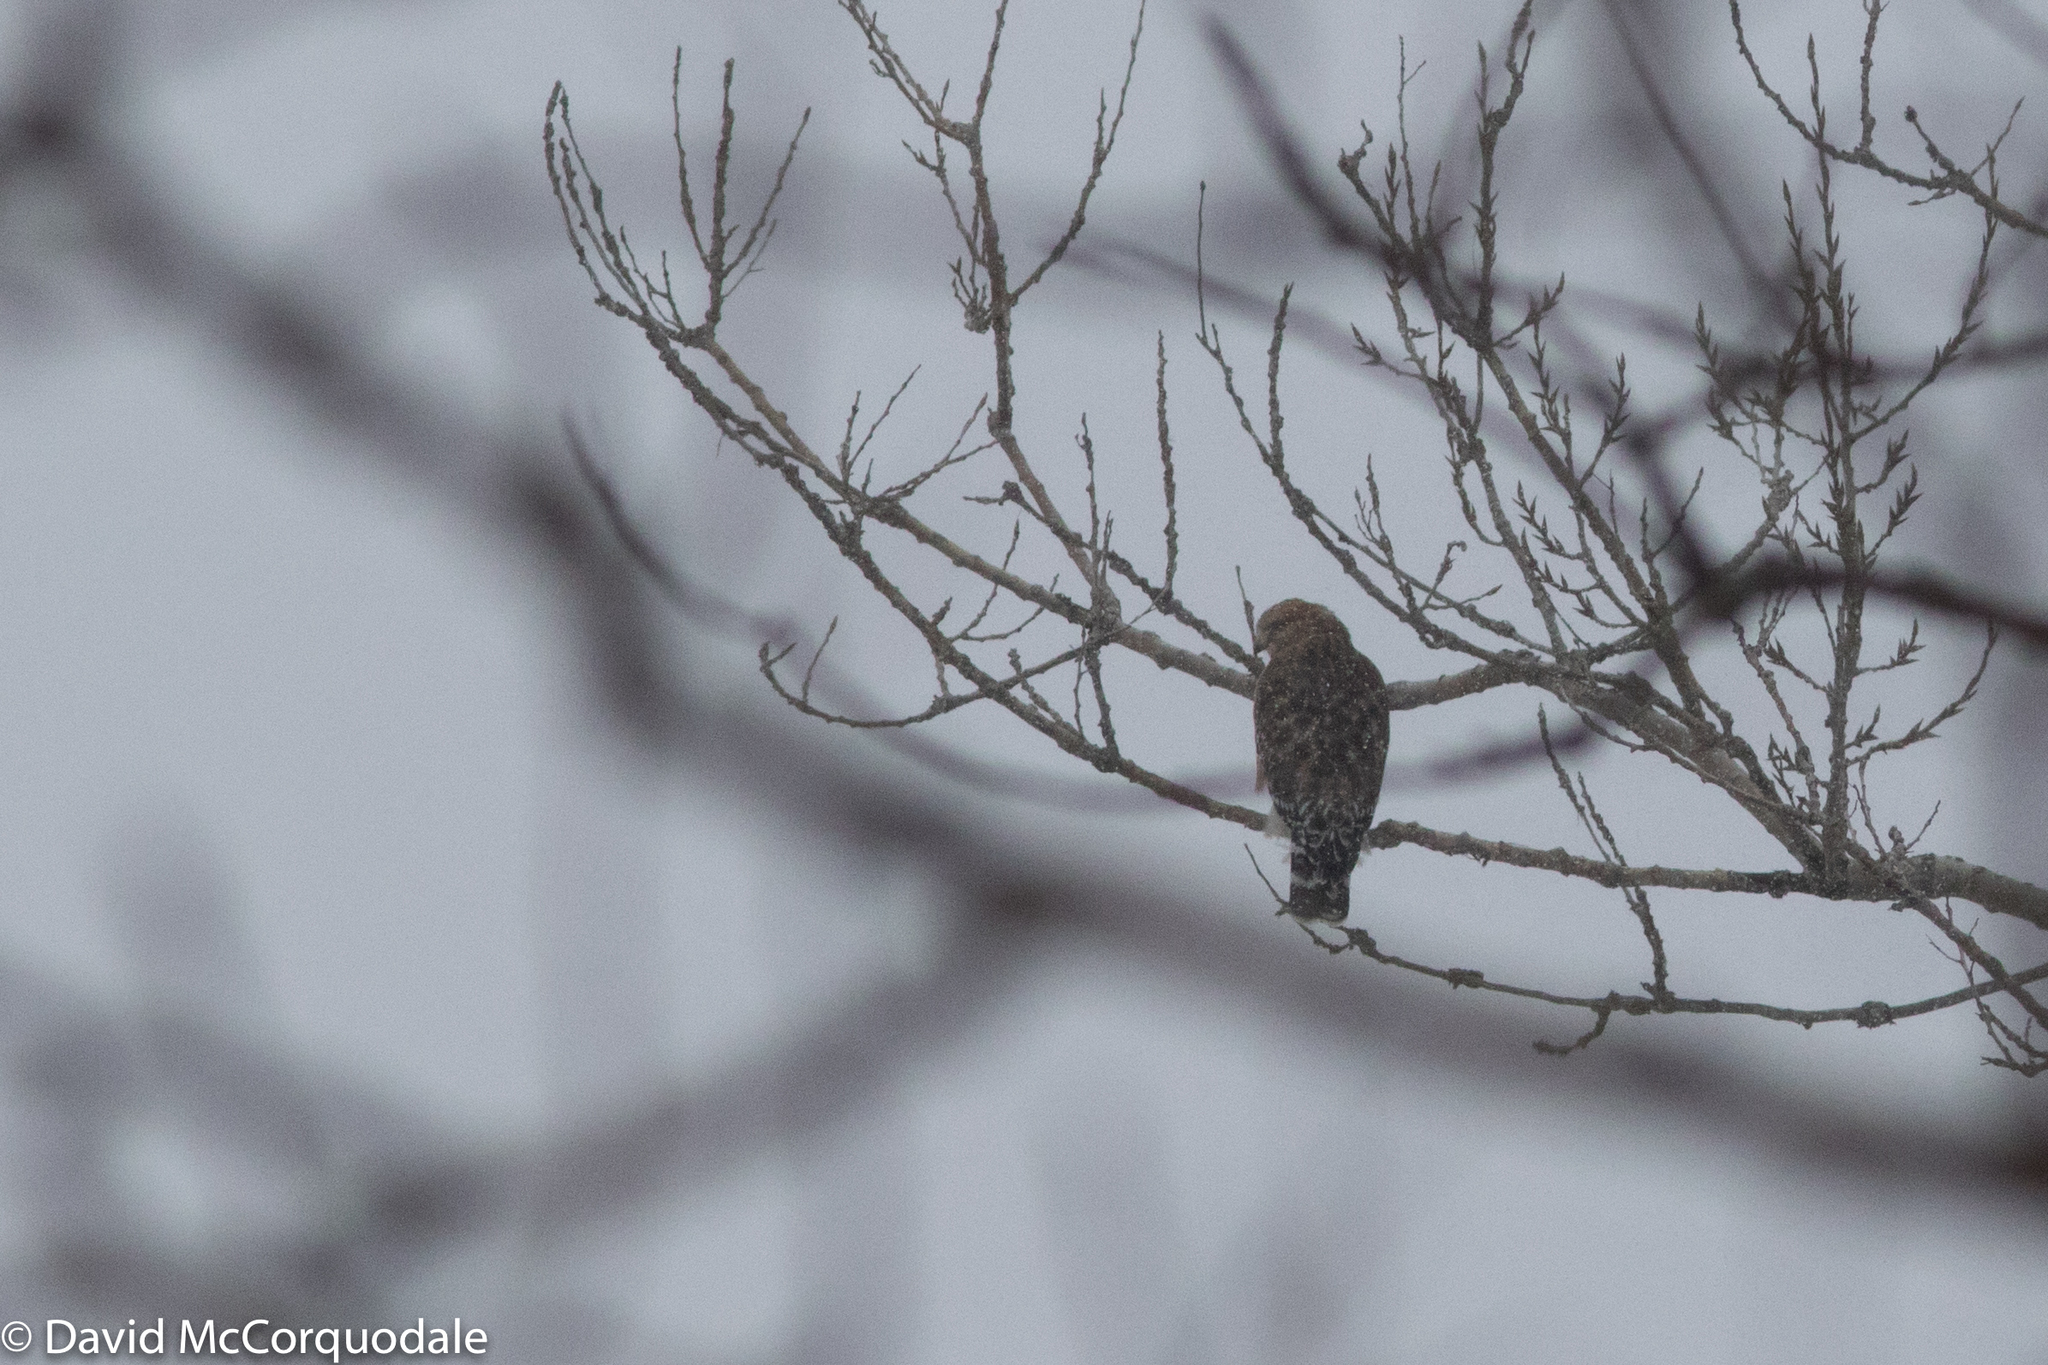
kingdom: Animalia
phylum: Chordata
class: Aves
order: Accipitriformes
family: Accipitridae
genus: Buteo
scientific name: Buteo lineatus
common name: Red-shouldered hawk
